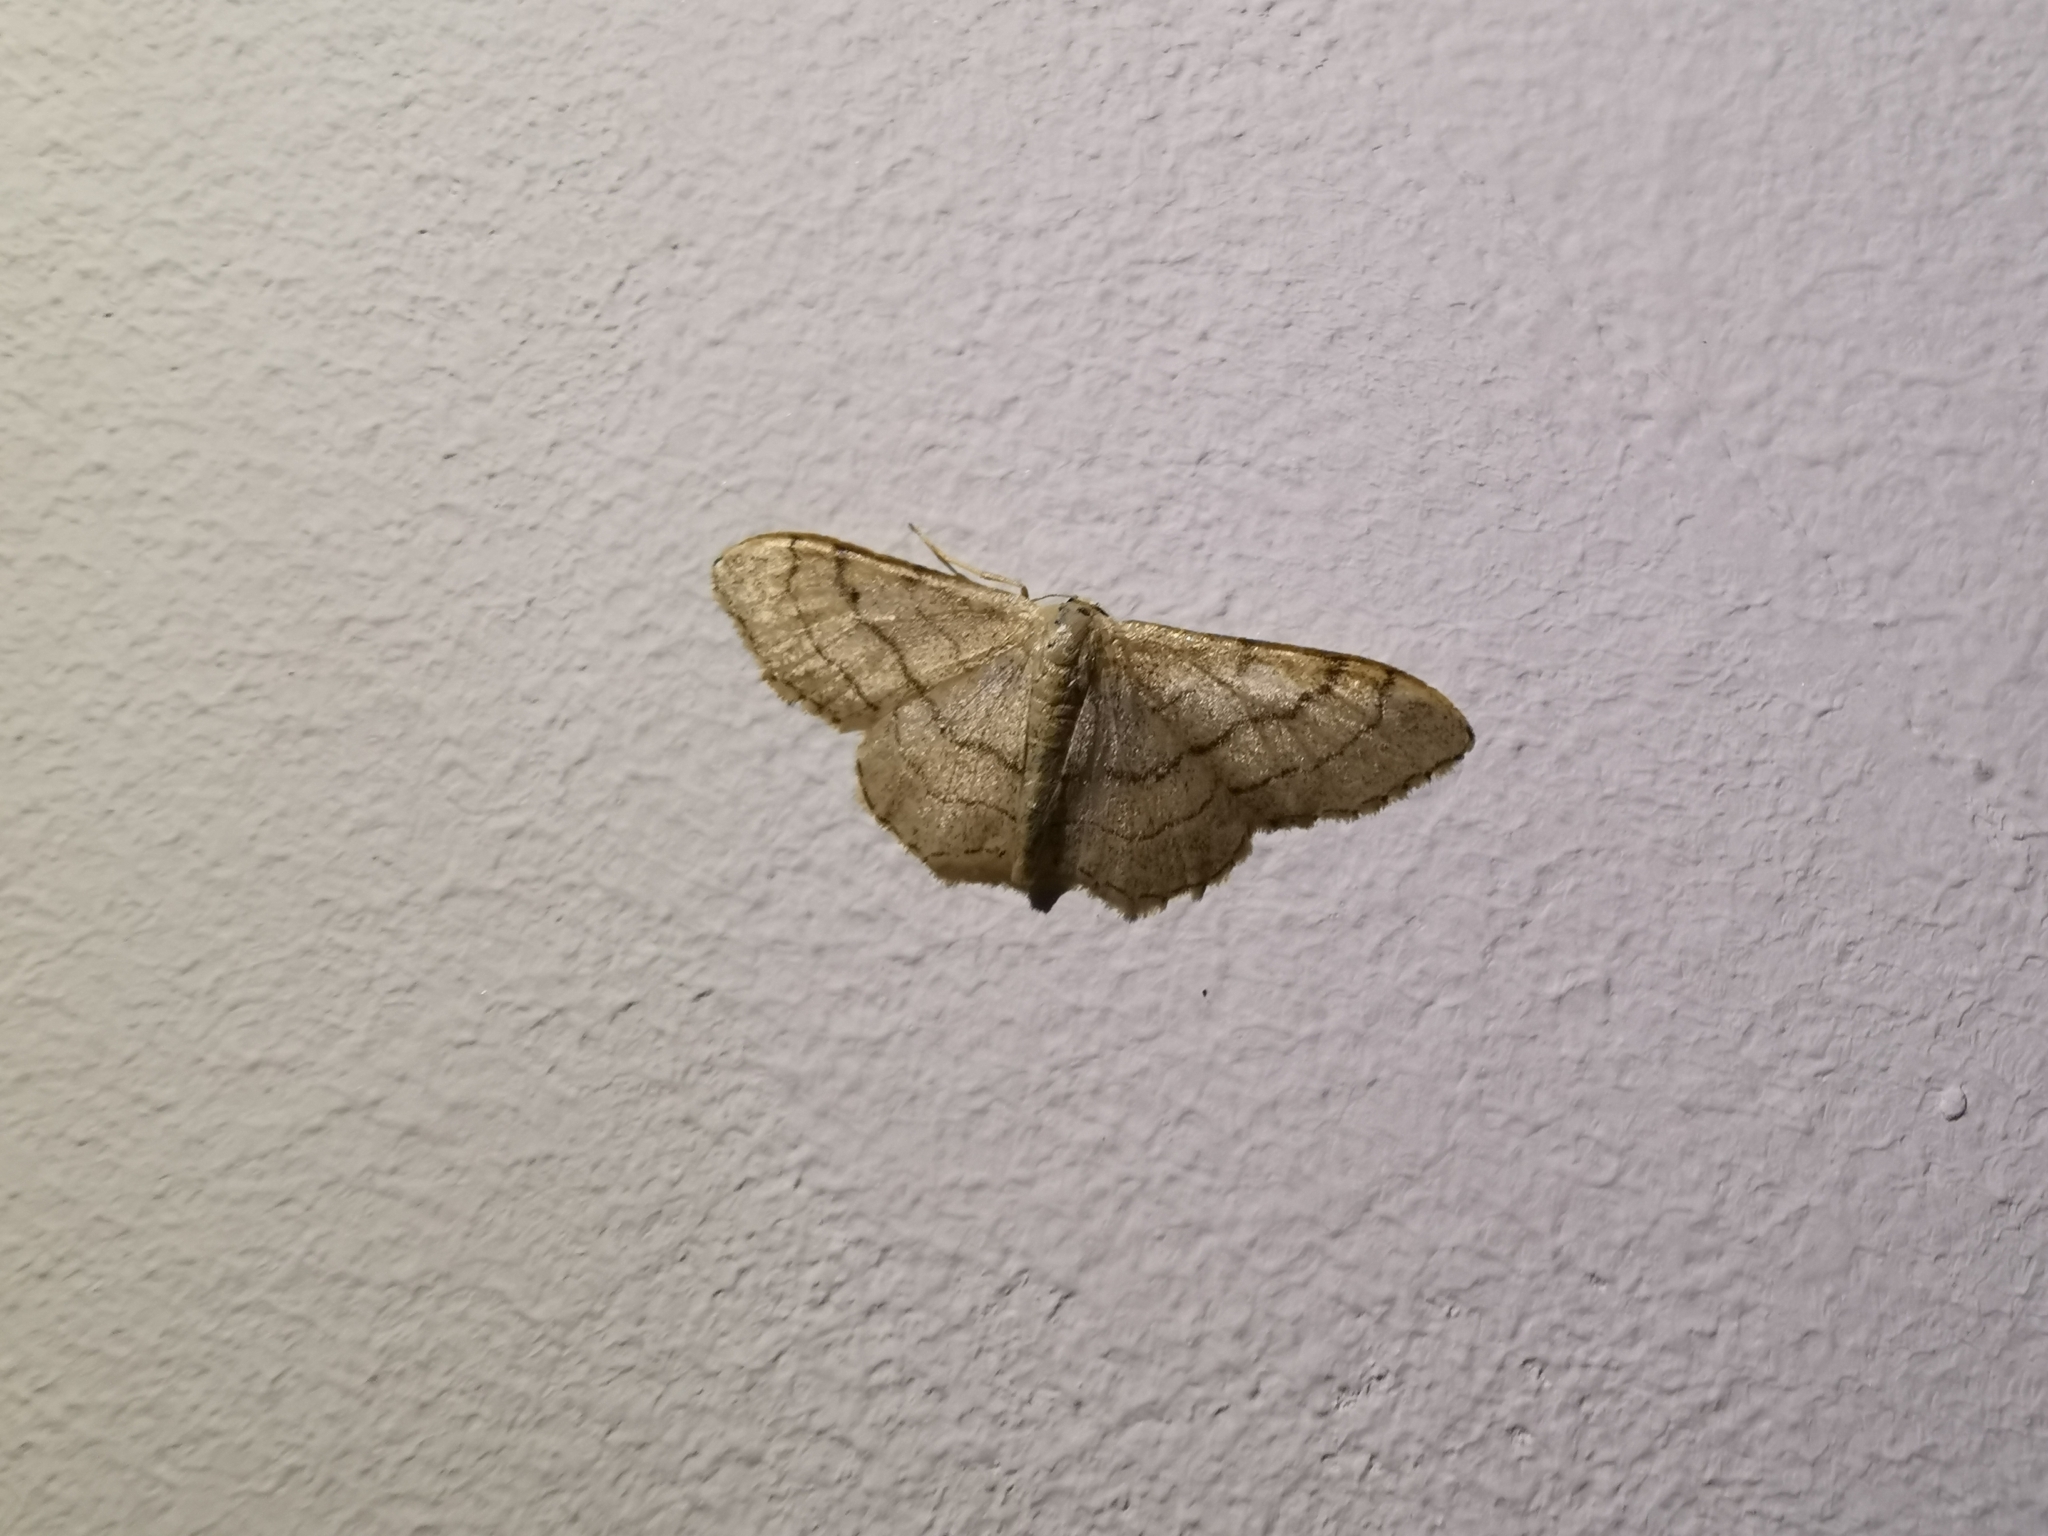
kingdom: Animalia
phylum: Arthropoda
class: Insecta
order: Lepidoptera
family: Geometridae
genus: Idaea
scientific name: Idaea aversata
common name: Riband wave
